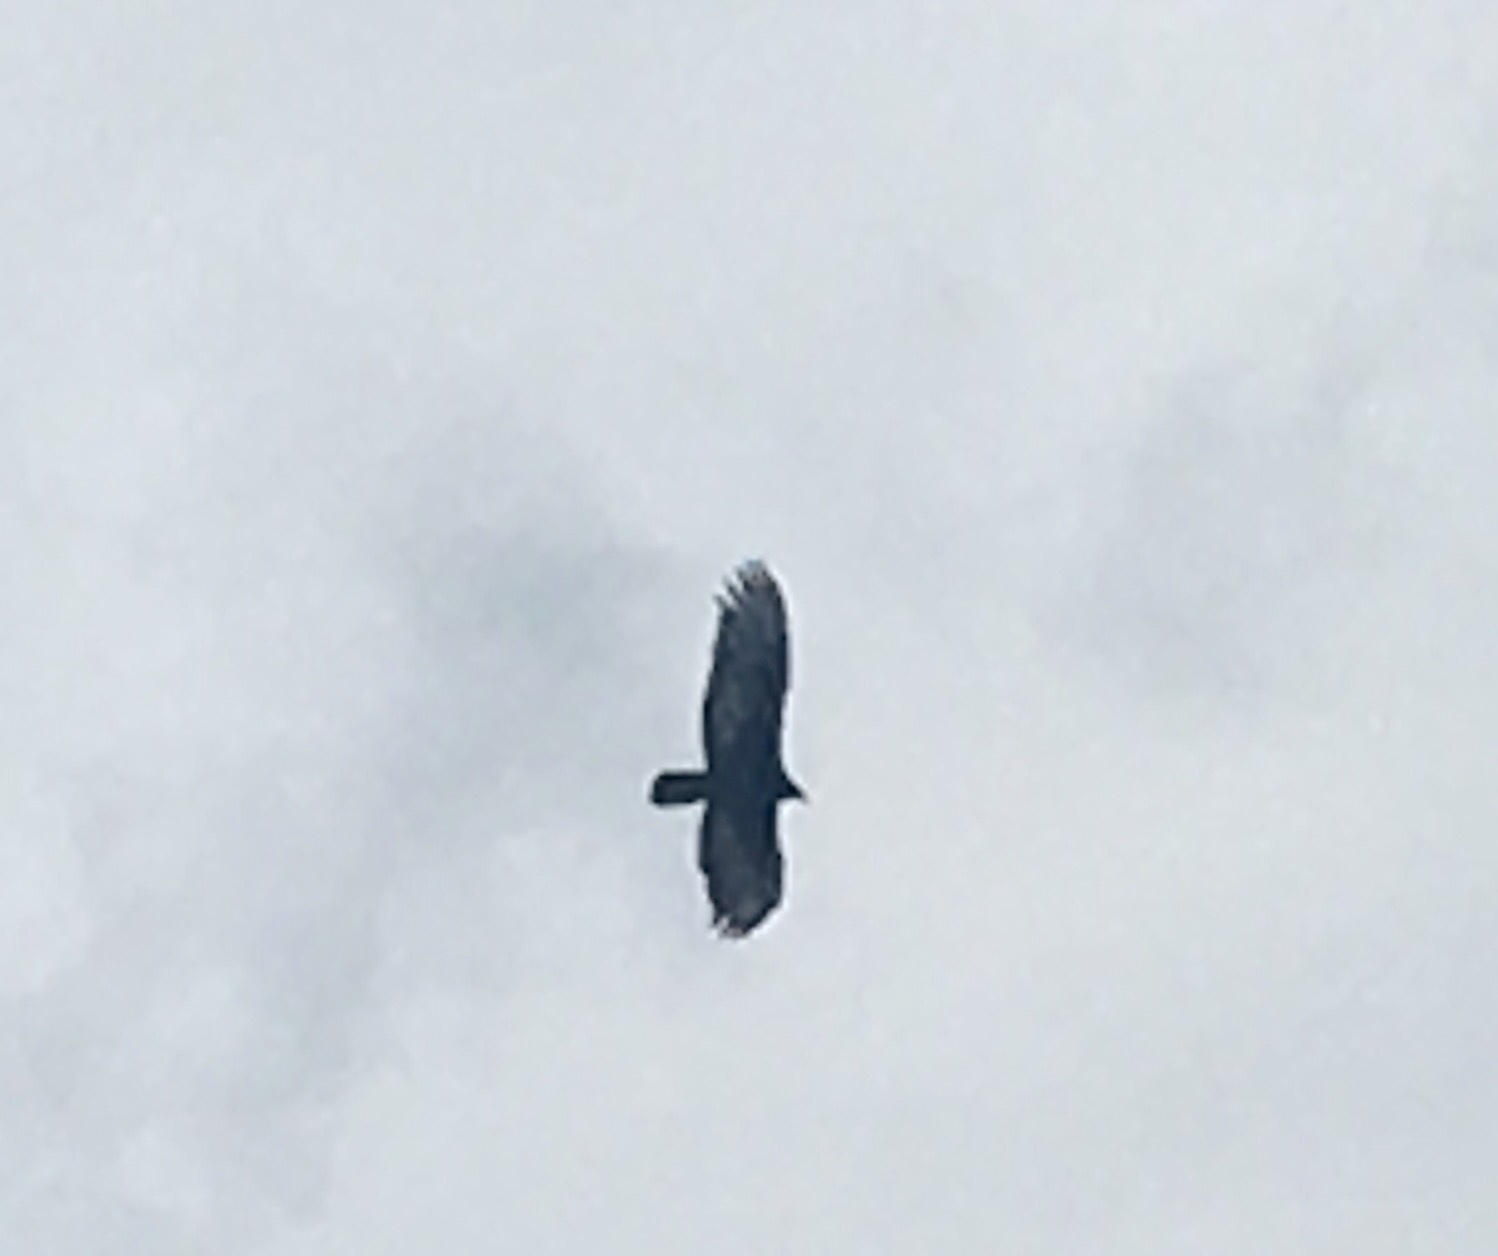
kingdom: Animalia
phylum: Chordata
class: Aves
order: Accipitriformes
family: Cathartidae
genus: Cathartes
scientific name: Cathartes aura
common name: Turkey vulture
